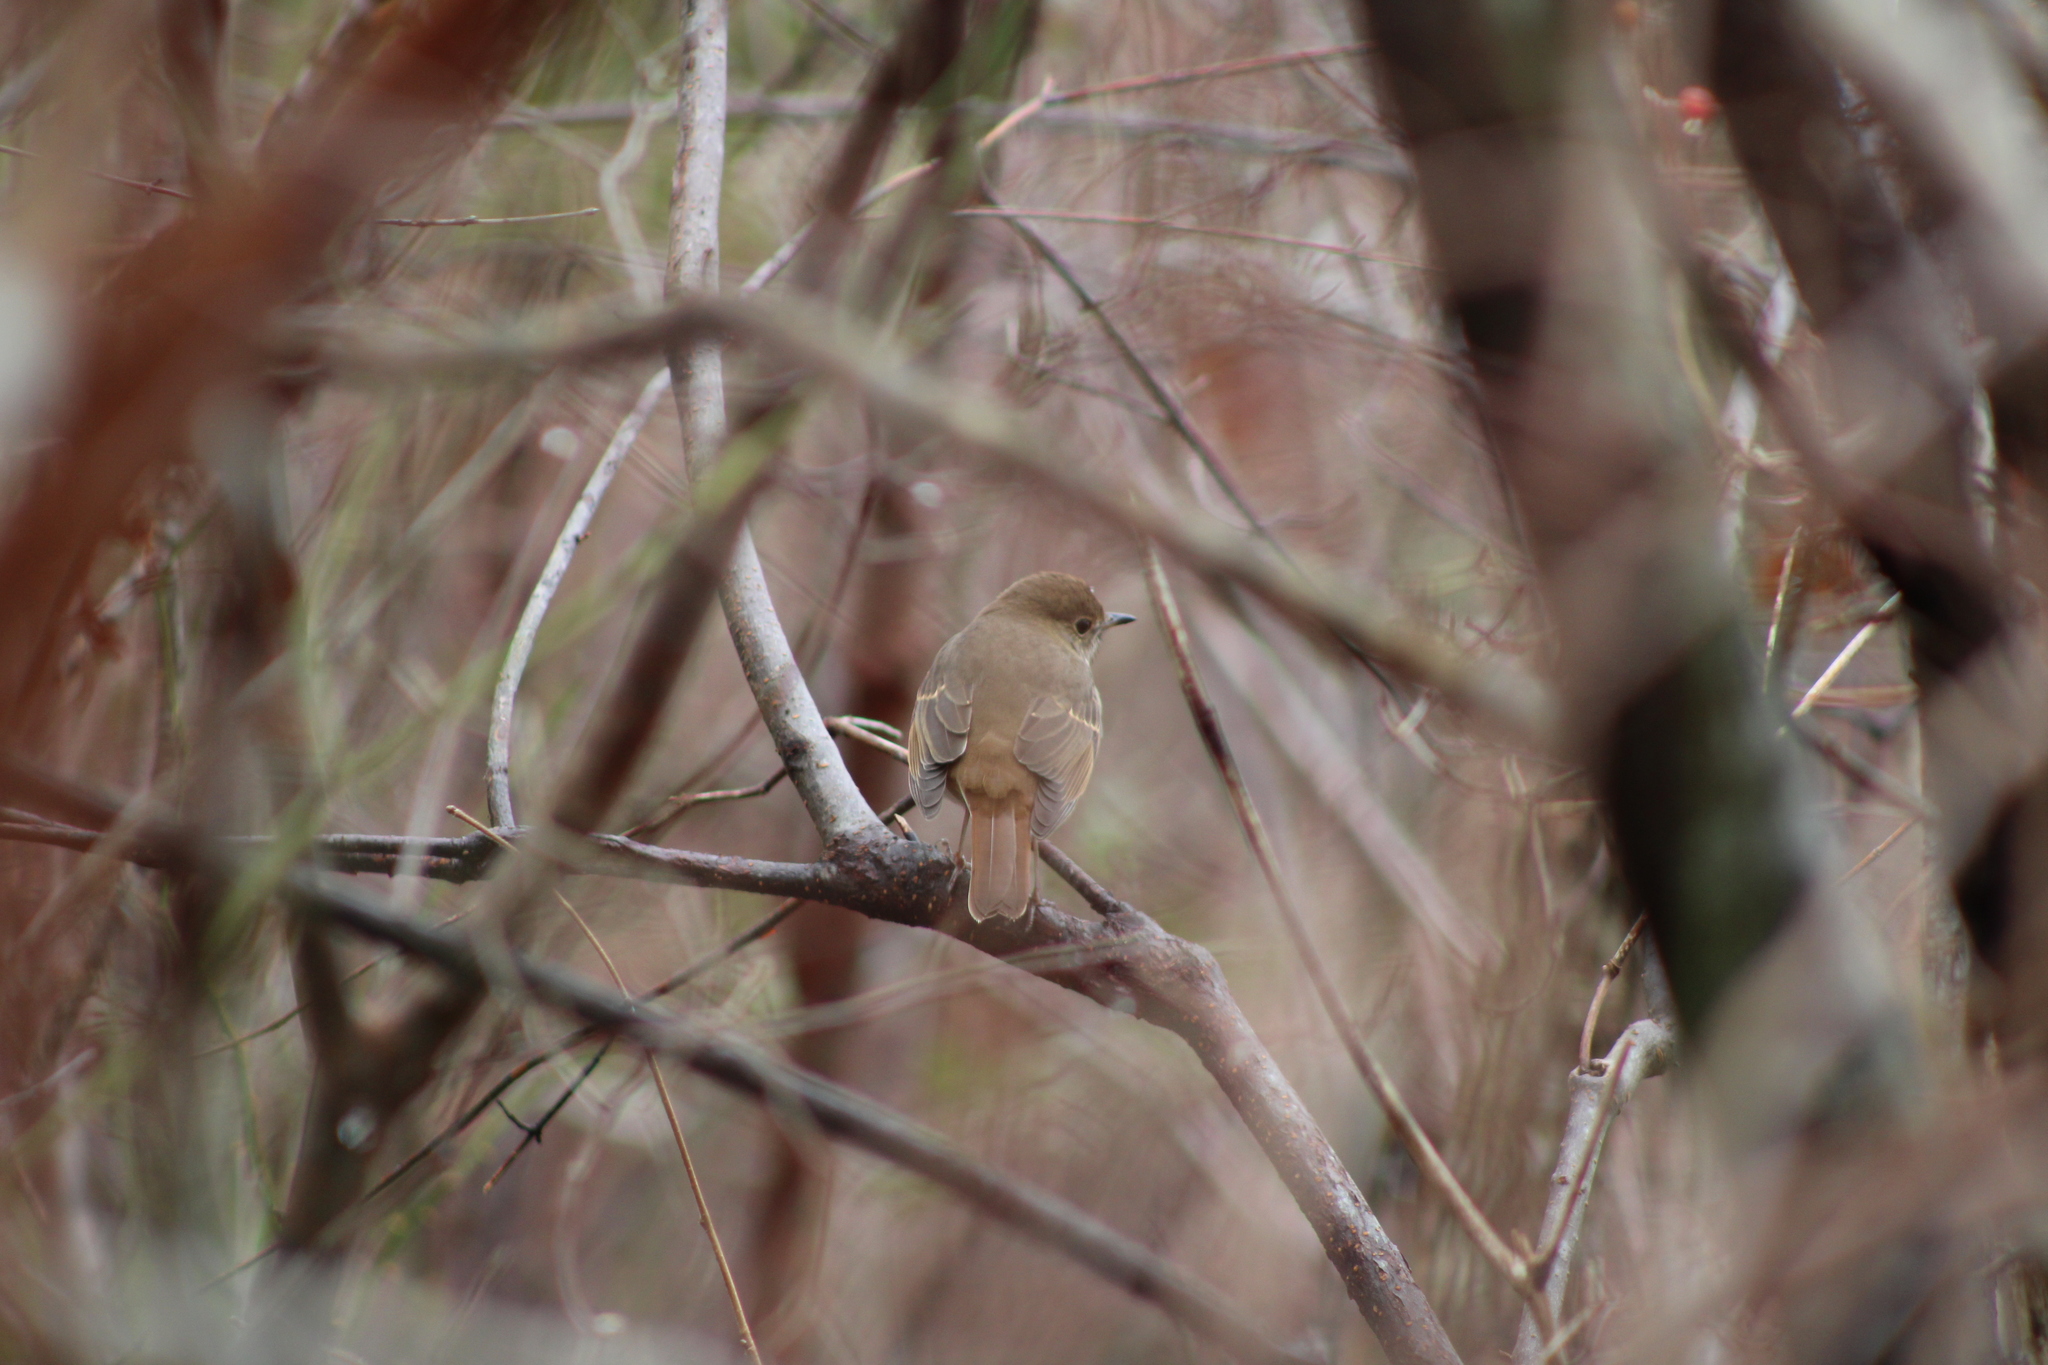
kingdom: Animalia
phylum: Chordata
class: Aves
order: Passeriformes
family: Turdidae
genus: Catharus
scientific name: Catharus guttatus
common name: Hermit thrush
